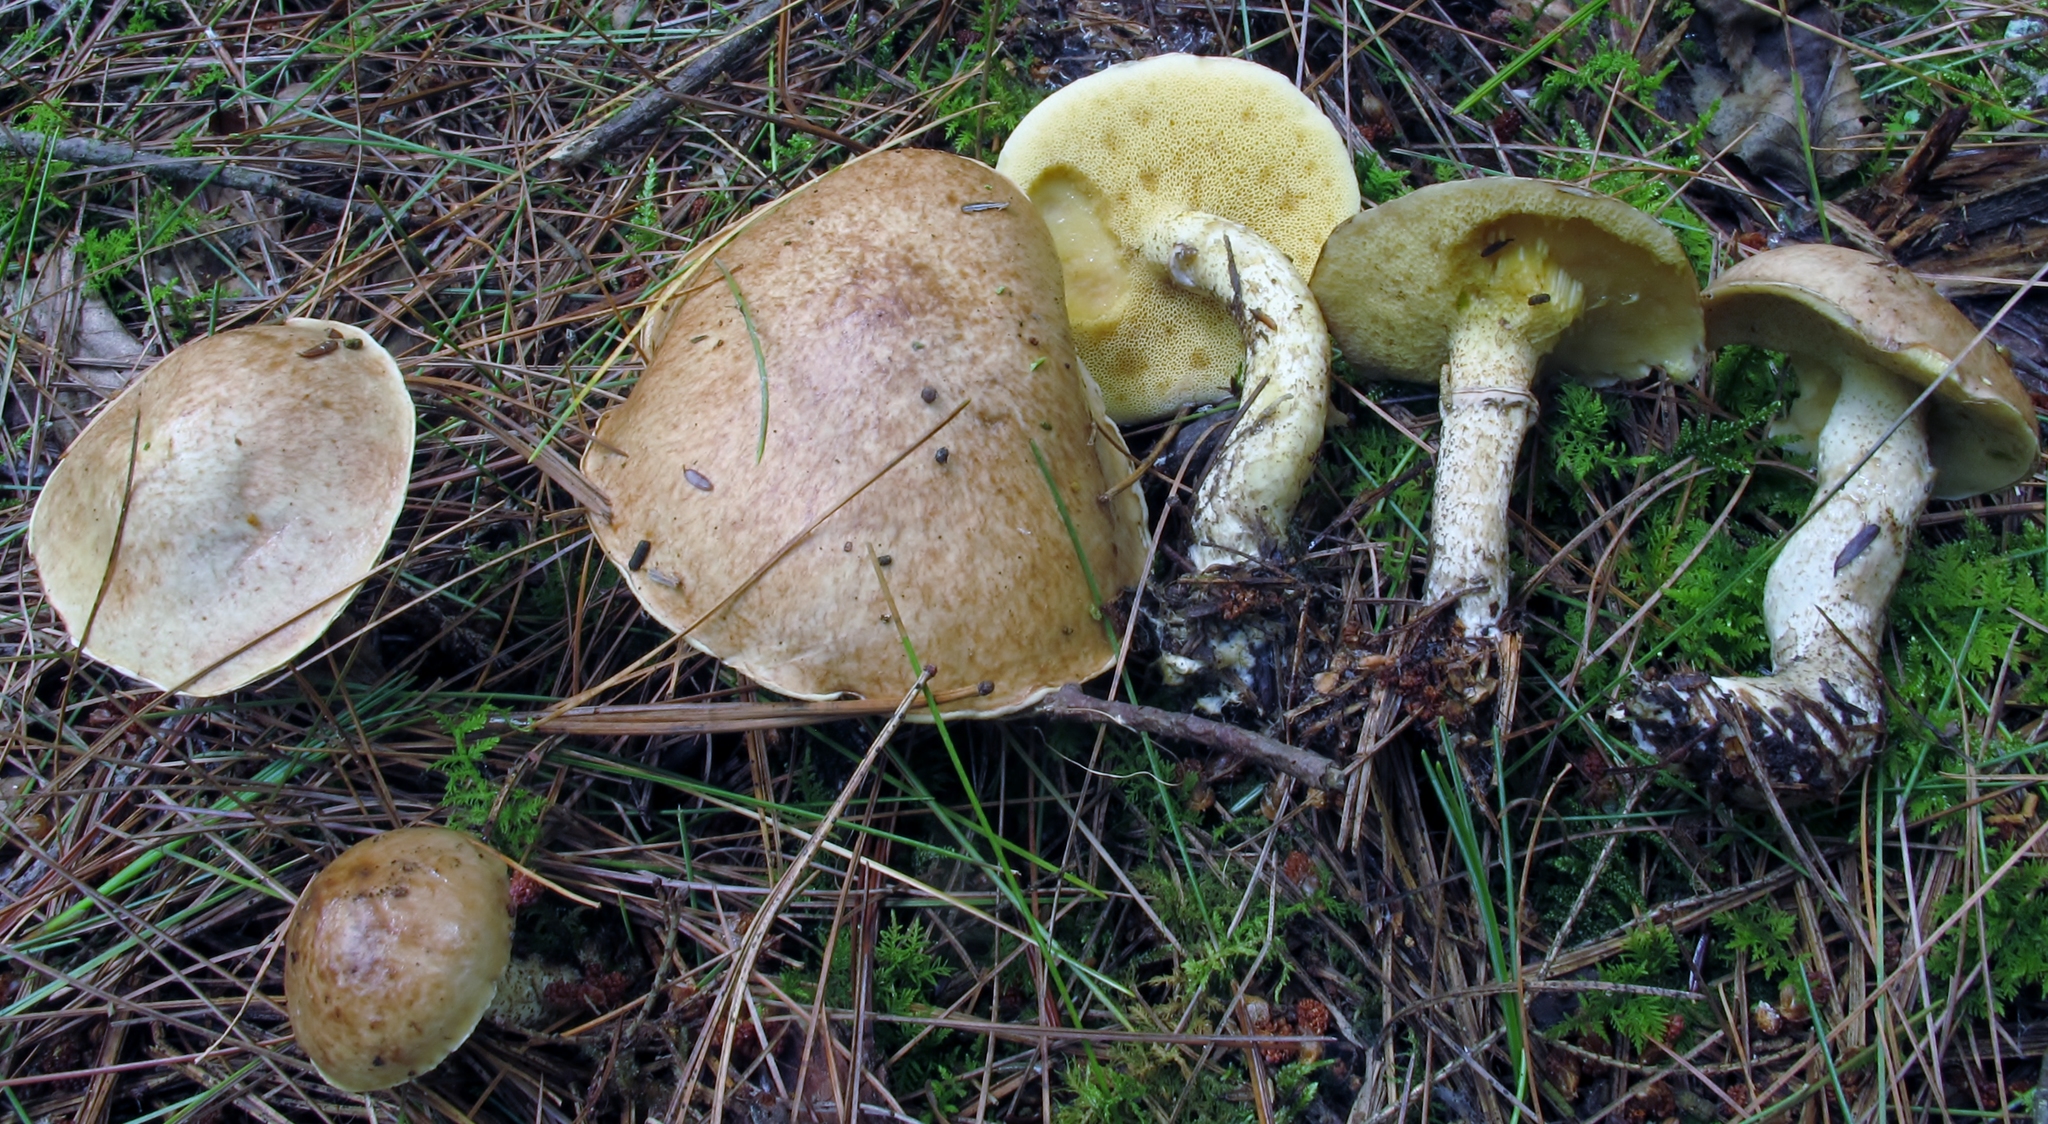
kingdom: Fungi
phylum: Basidiomycota
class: Agaricomycetes
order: Boletales
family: Suillaceae
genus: Suillus
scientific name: Suillus acidus
